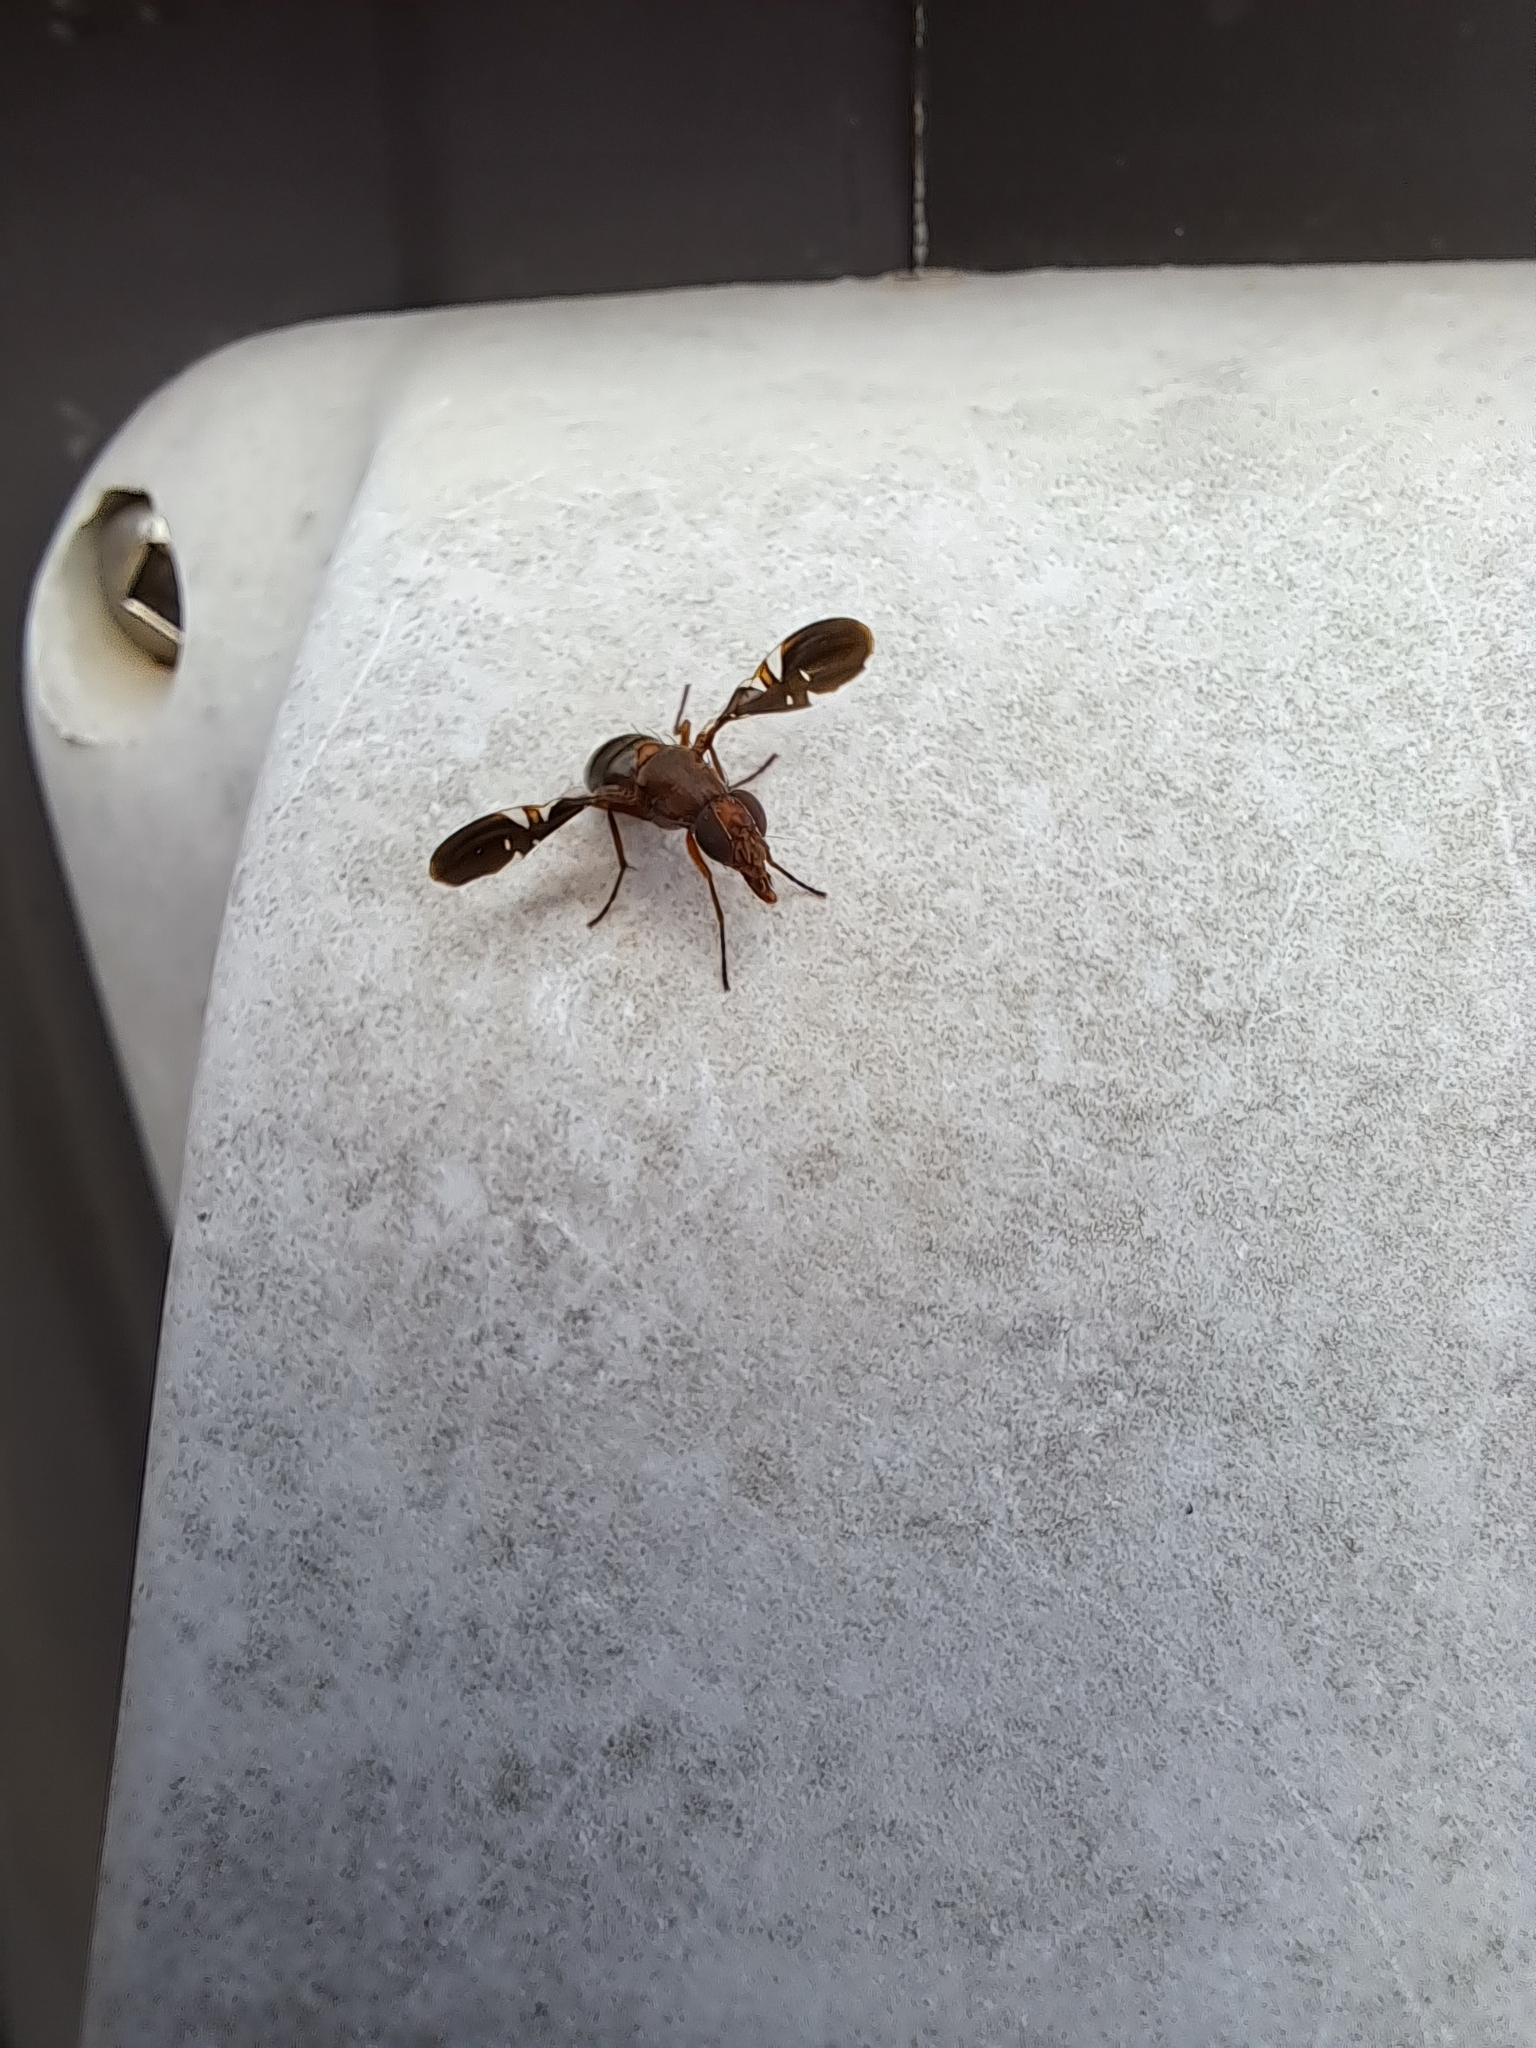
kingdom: Animalia
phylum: Arthropoda
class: Insecta
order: Diptera
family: Ulidiidae
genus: Delphinia
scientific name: Delphinia picta
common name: Common picture-winged fly
